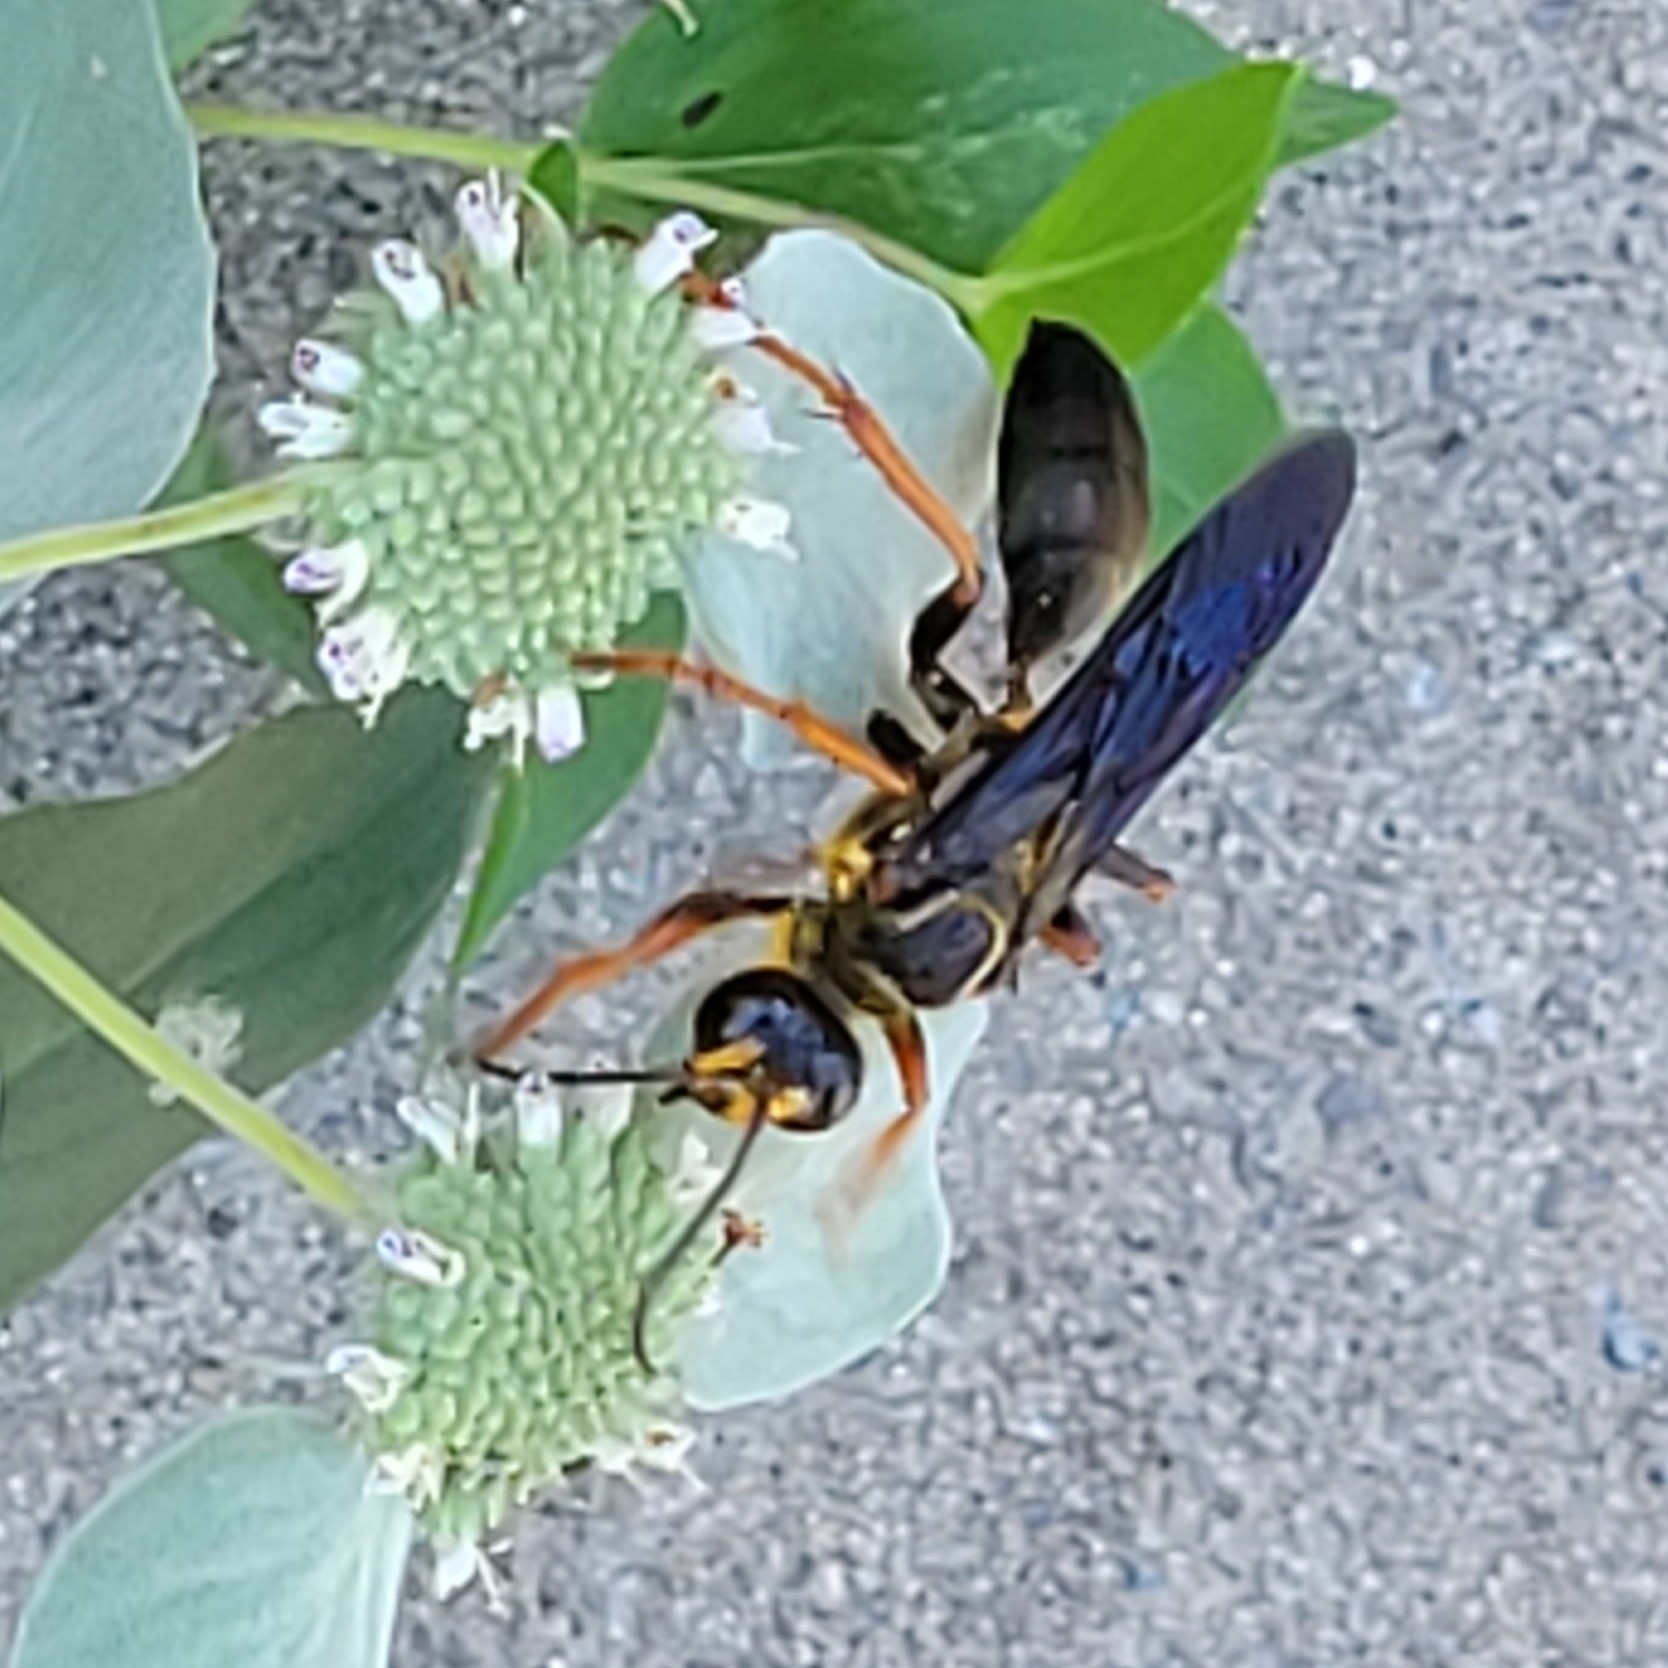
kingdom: Animalia
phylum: Arthropoda
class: Insecta
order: Hymenoptera
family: Sphecidae
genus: Sphex
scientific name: Sphex flavovestitus
